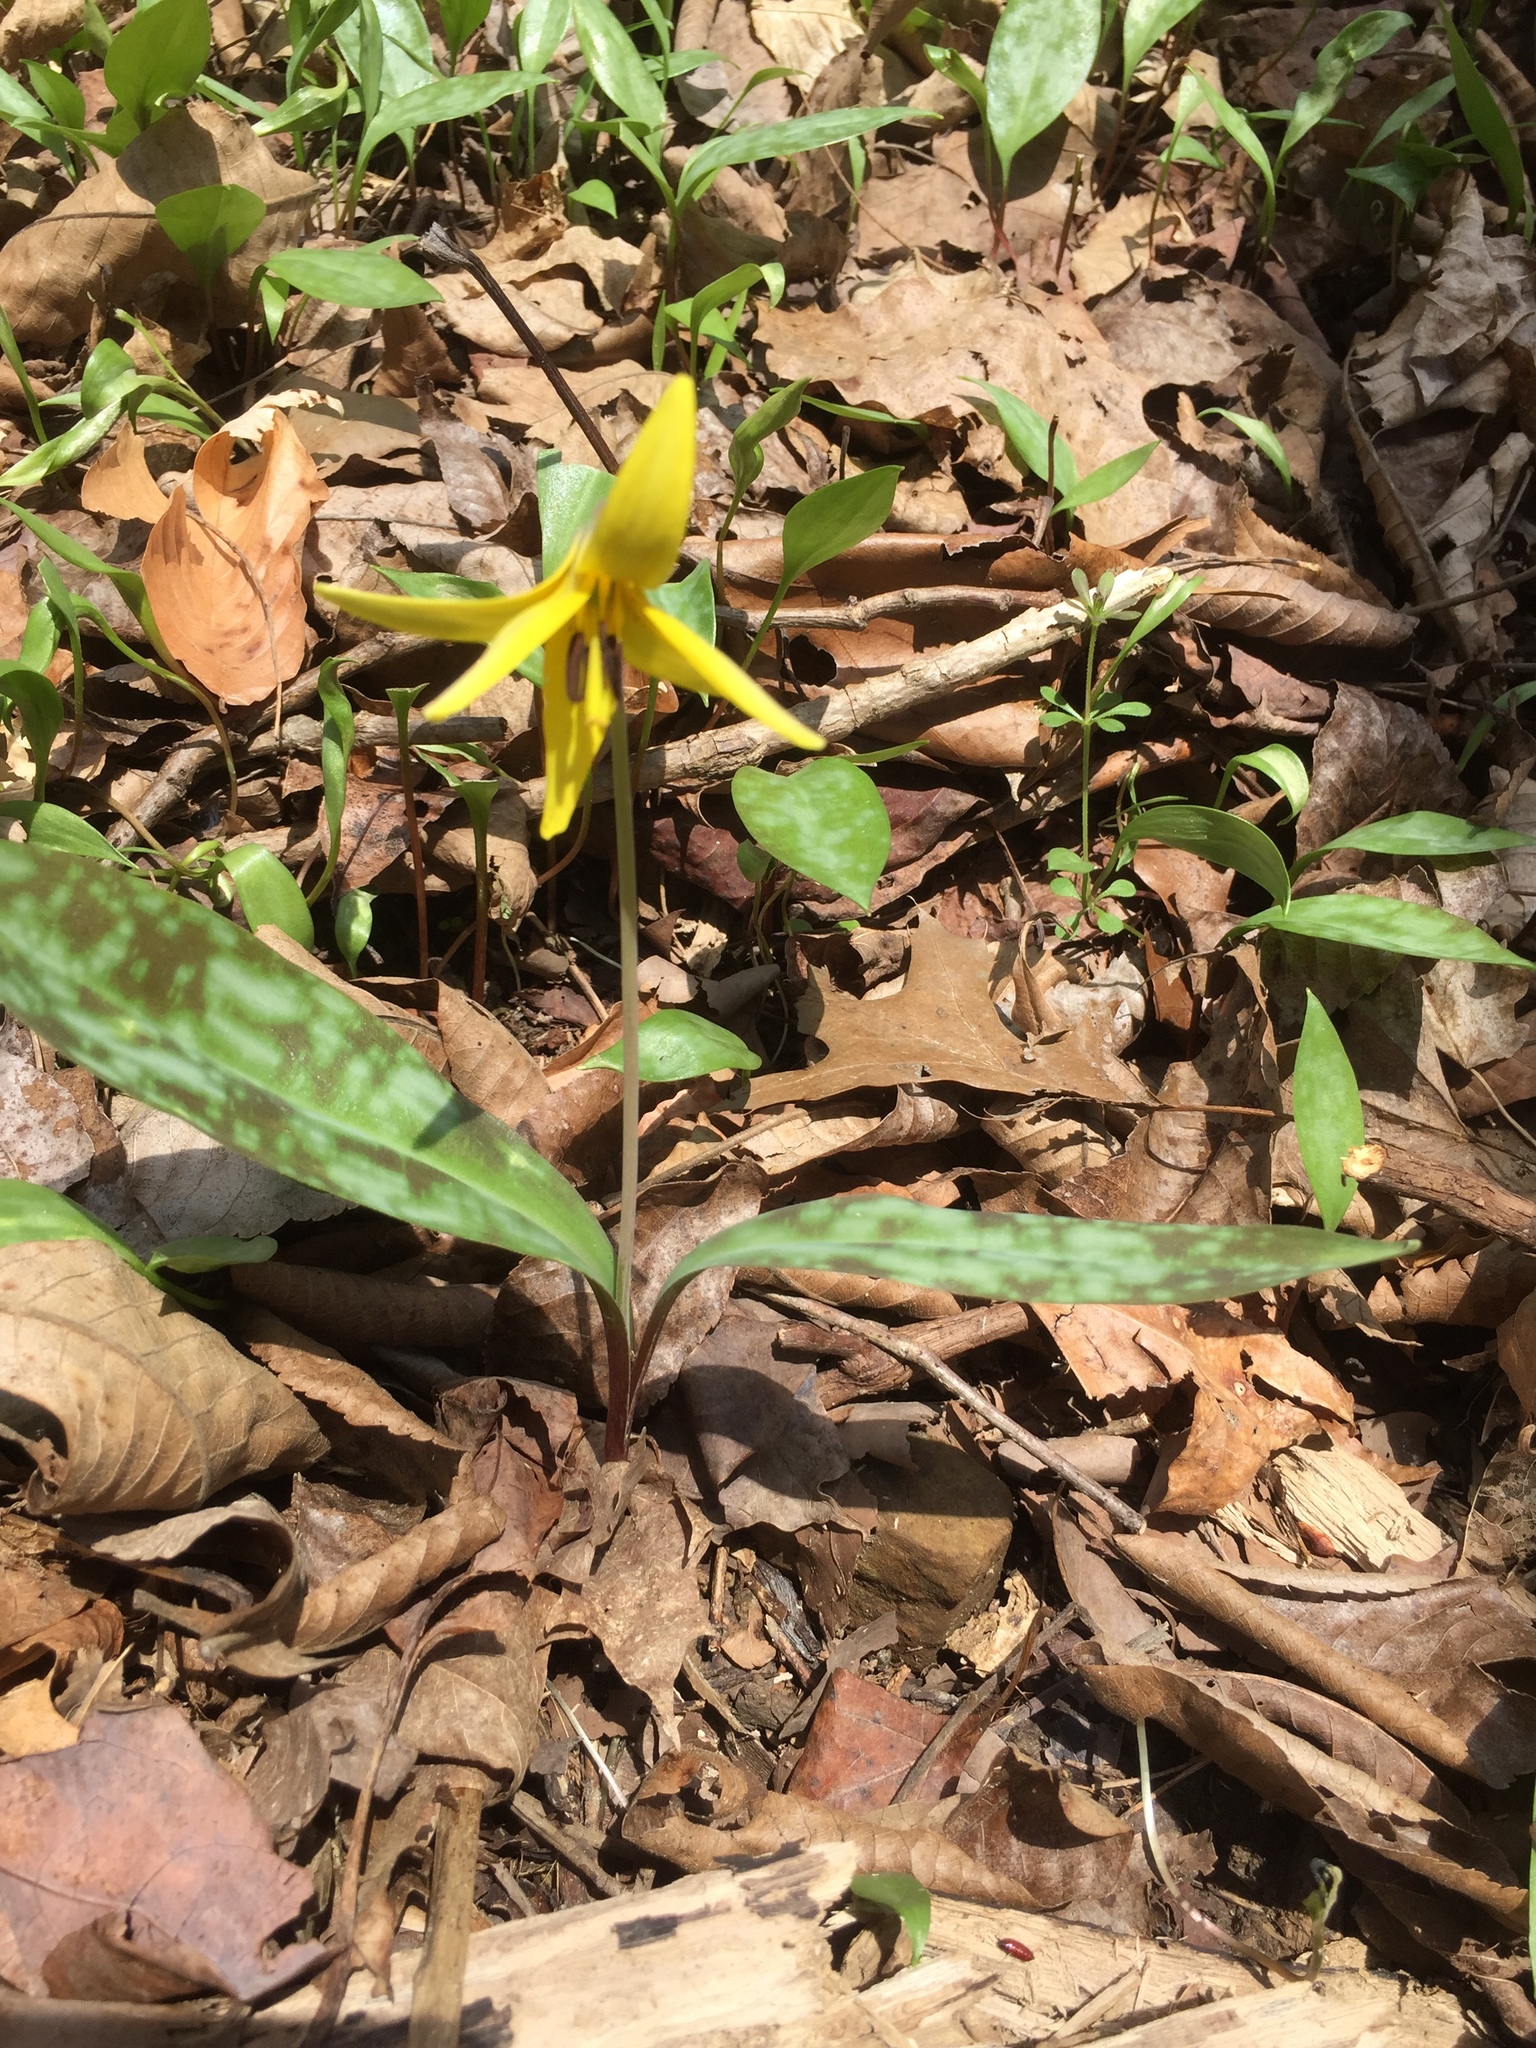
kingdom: Plantae
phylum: Tracheophyta
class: Liliopsida
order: Liliales
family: Liliaceae
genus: Erythronium
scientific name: Erythronium americanum
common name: Yellow adder's-tongue
